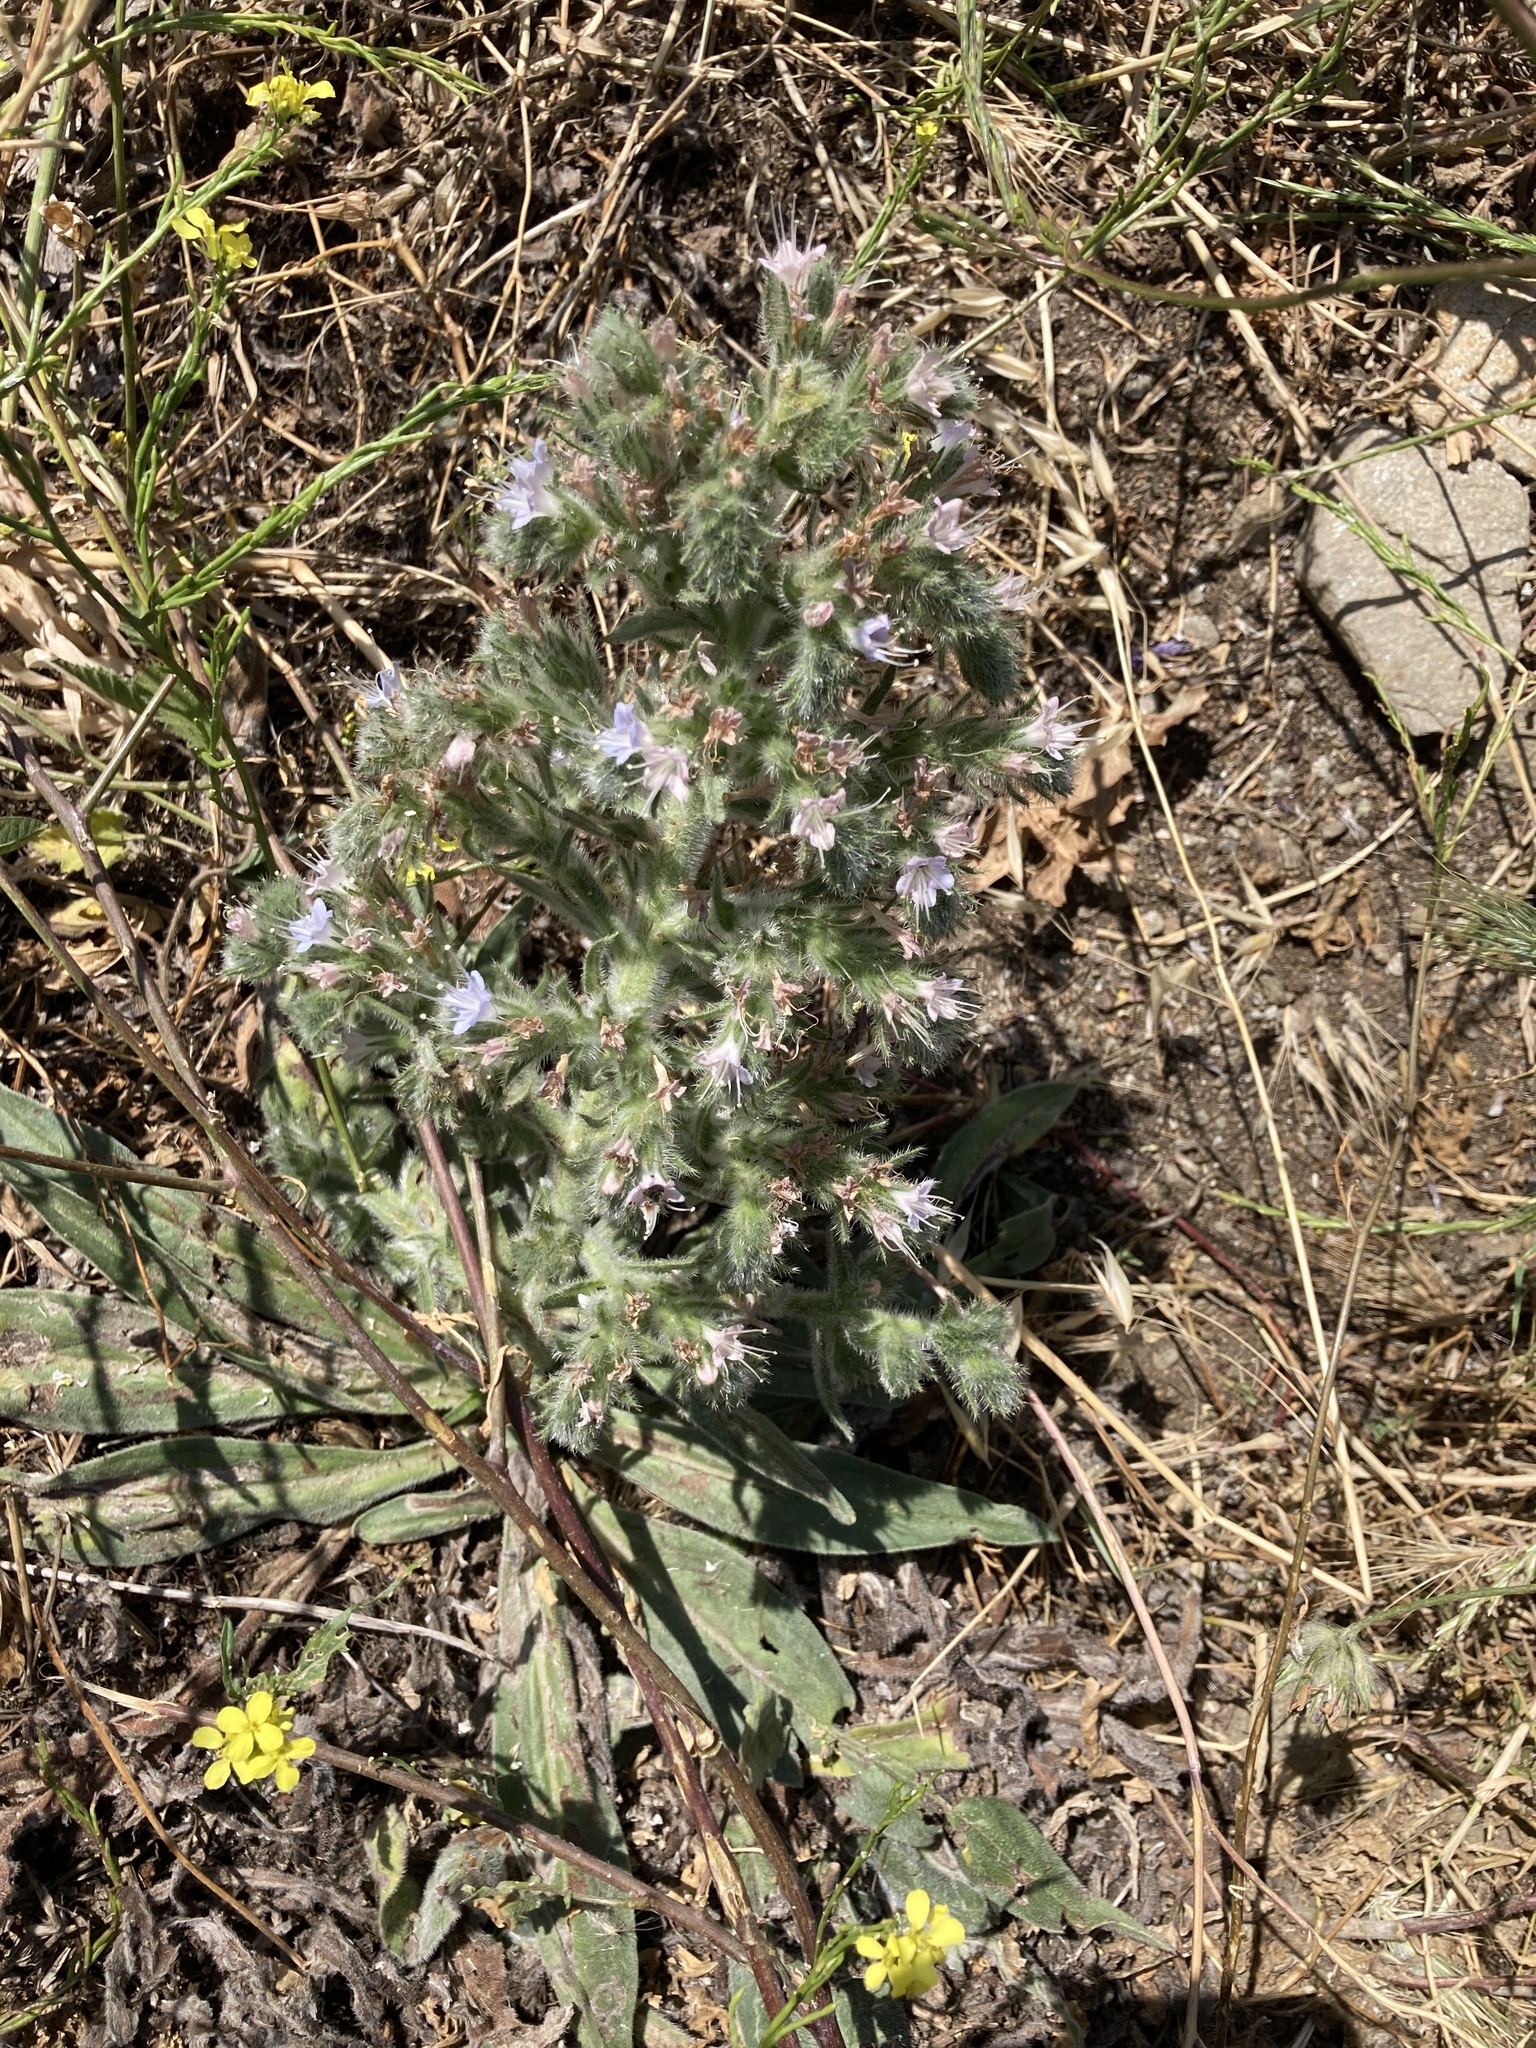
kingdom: Plantae
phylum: Tracheophyta
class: Magnoliopsida
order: Boraginales
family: Boraginaceae
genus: Echium
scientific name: Echium italicum
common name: Italian viper's bugloss
